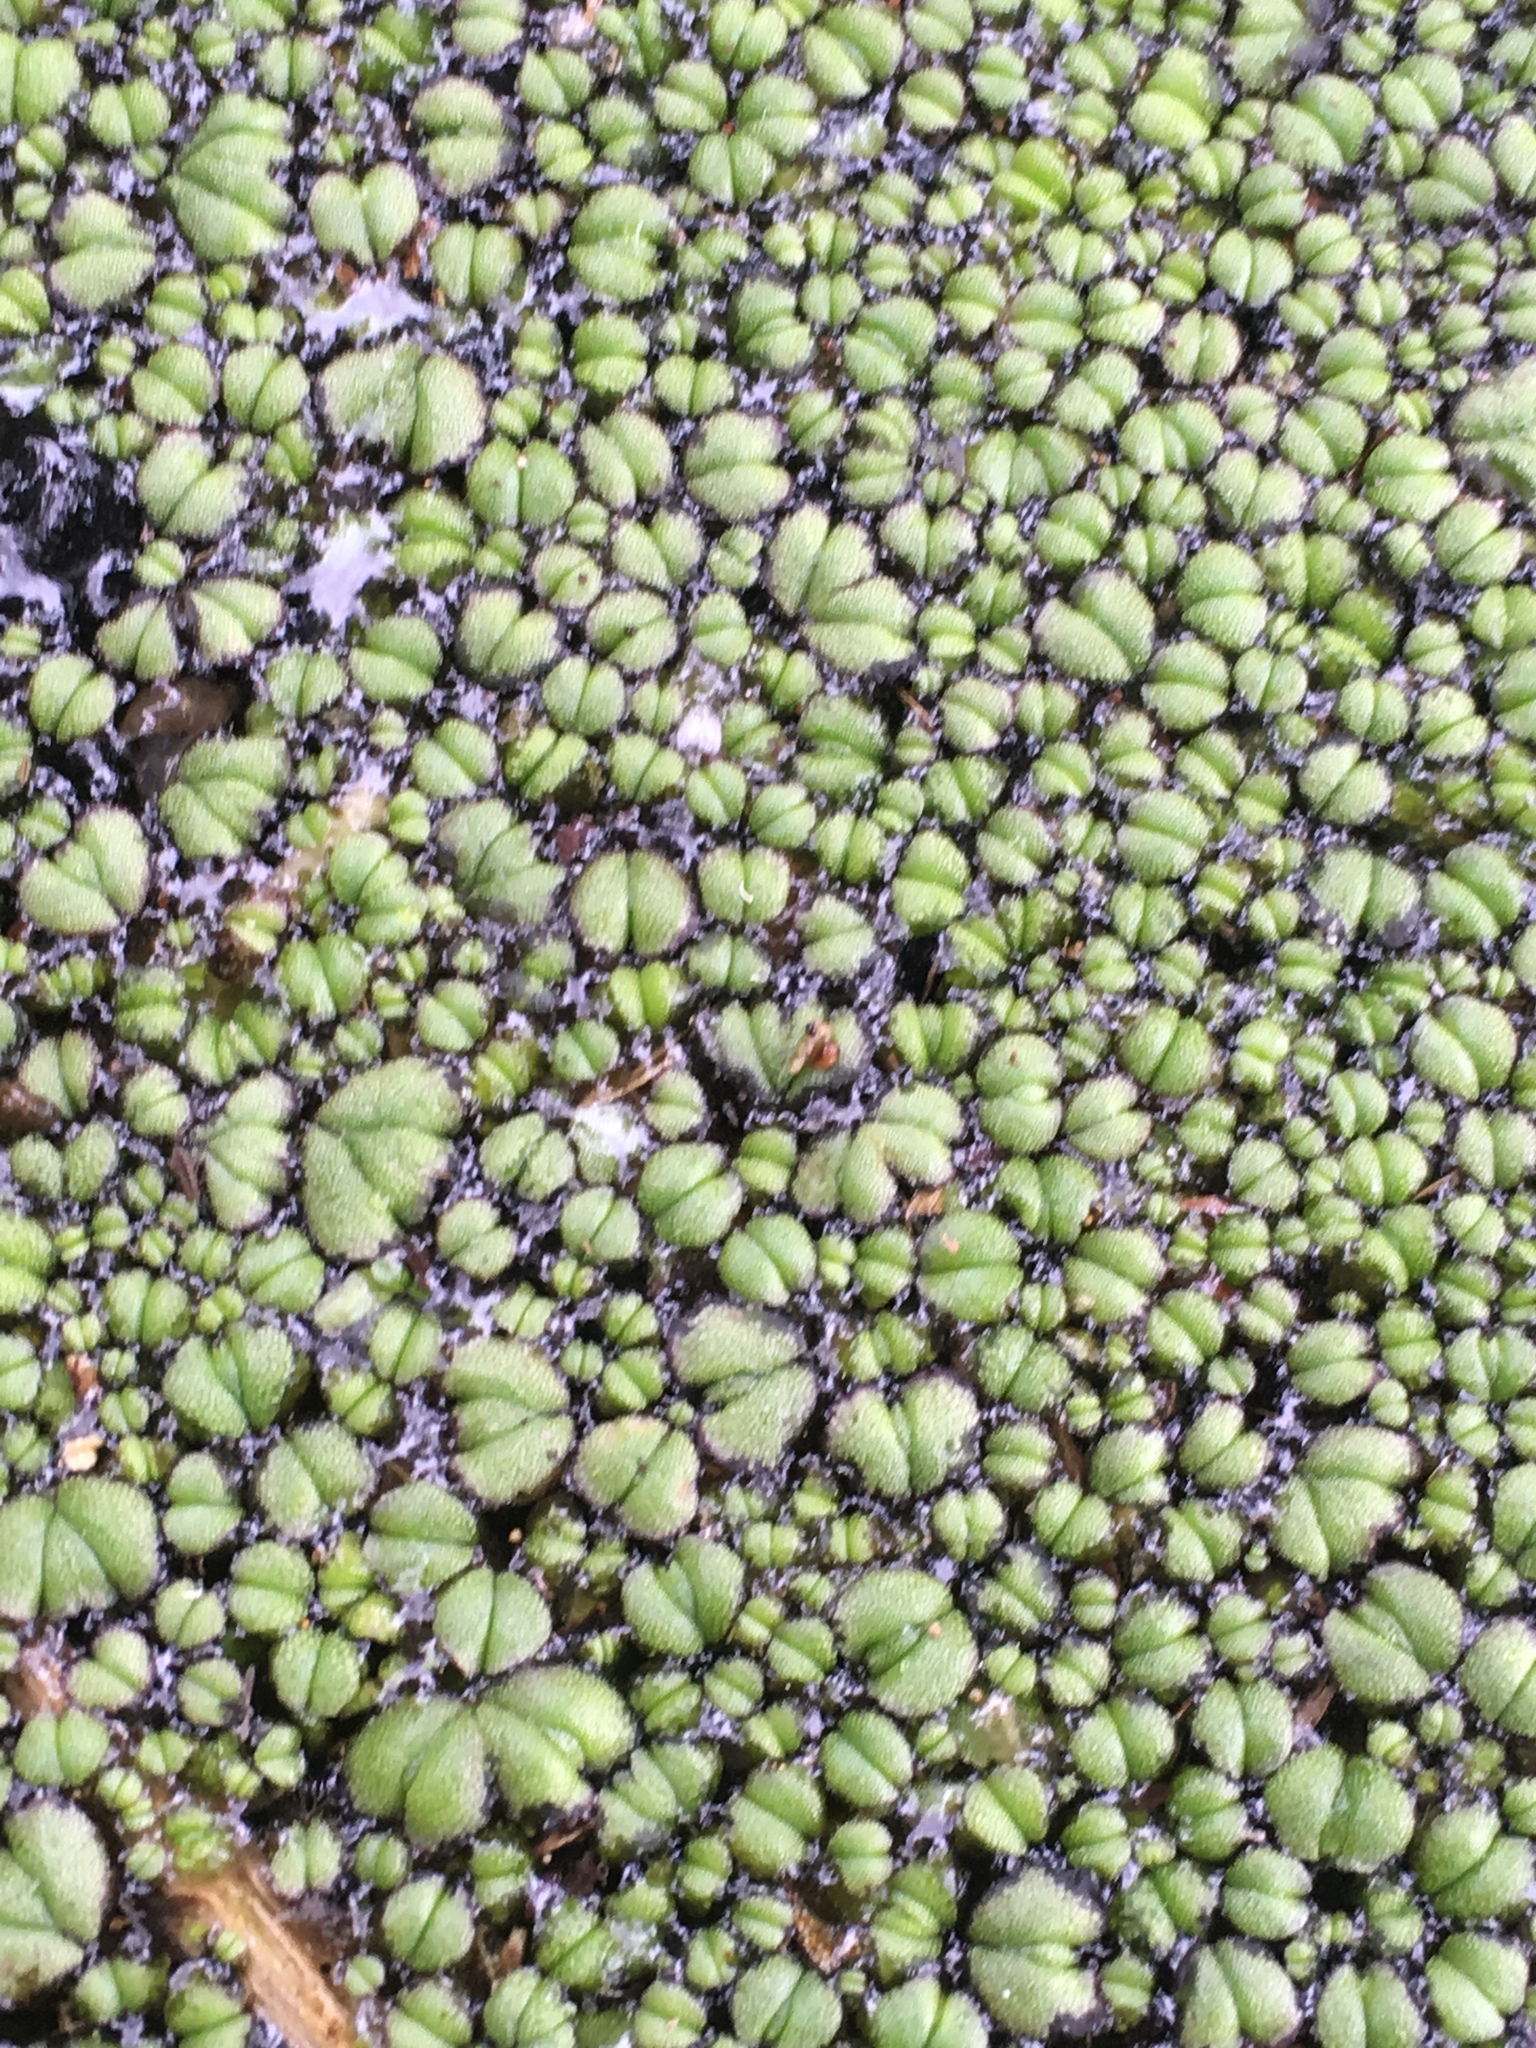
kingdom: Plantae
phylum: Marchantiophyta
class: Marchantiopsida
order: Marchantiales
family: Ricciaceae
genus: Ricciocarpos
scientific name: Ricciocarpos natans
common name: Purple-fringed liverwort
